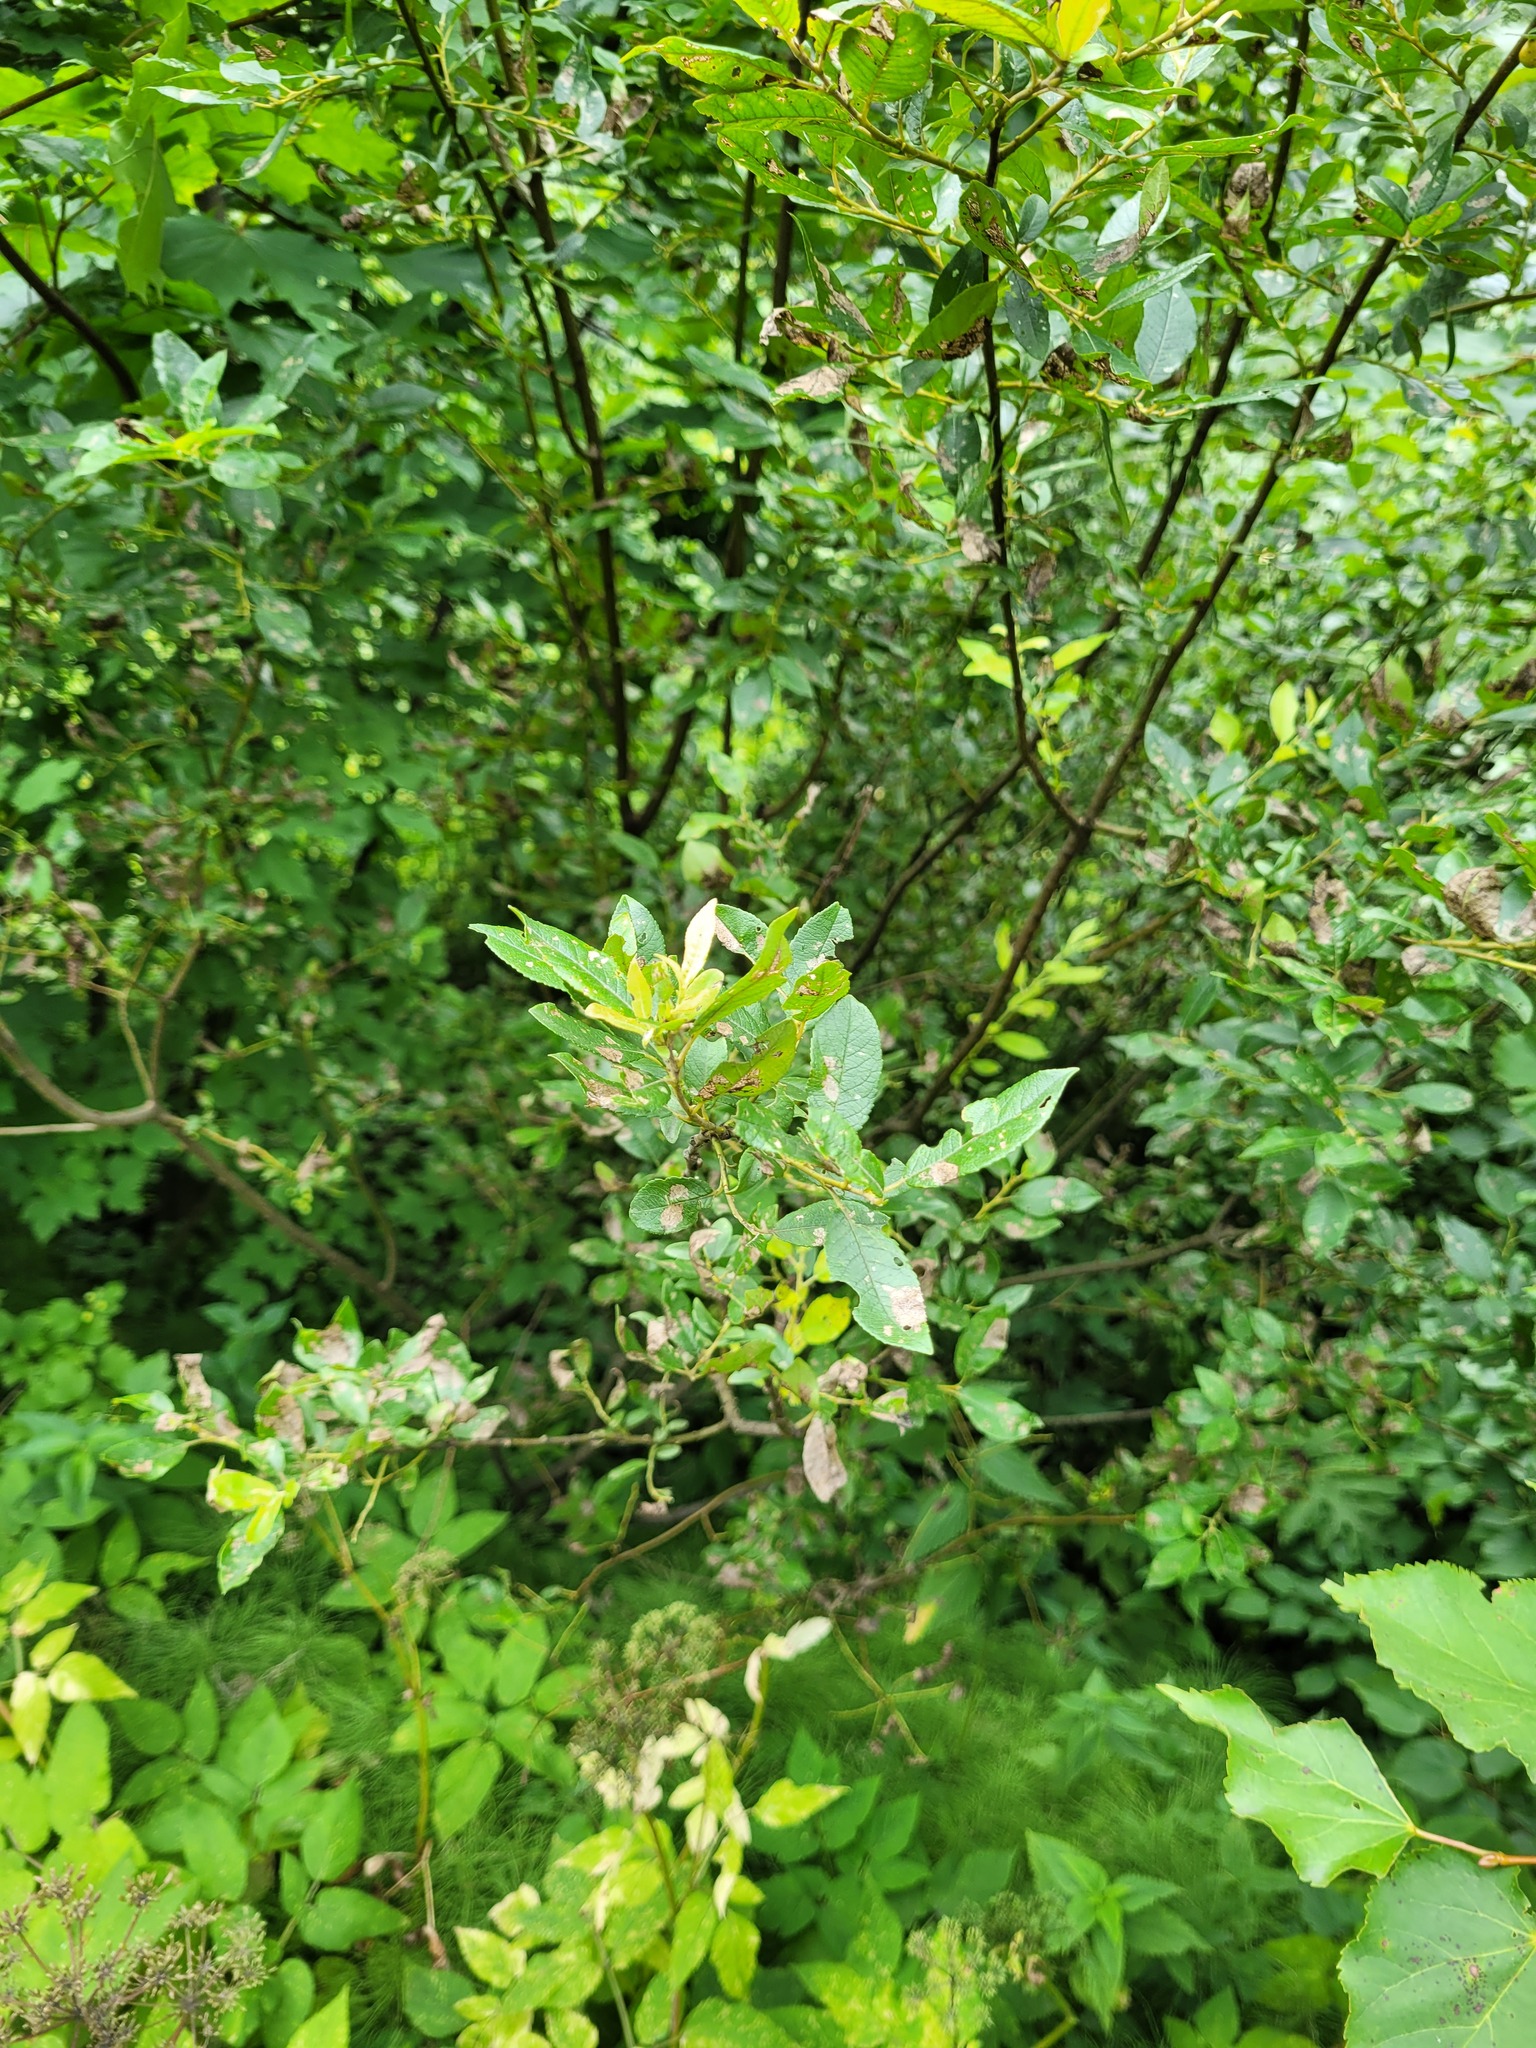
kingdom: Plantae
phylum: Tracheophyta
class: Magnoliopsida
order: Malpighiales
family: Salicaceae
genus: Salix
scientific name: Salix myrsinifolia
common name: Dark-leaved willow
